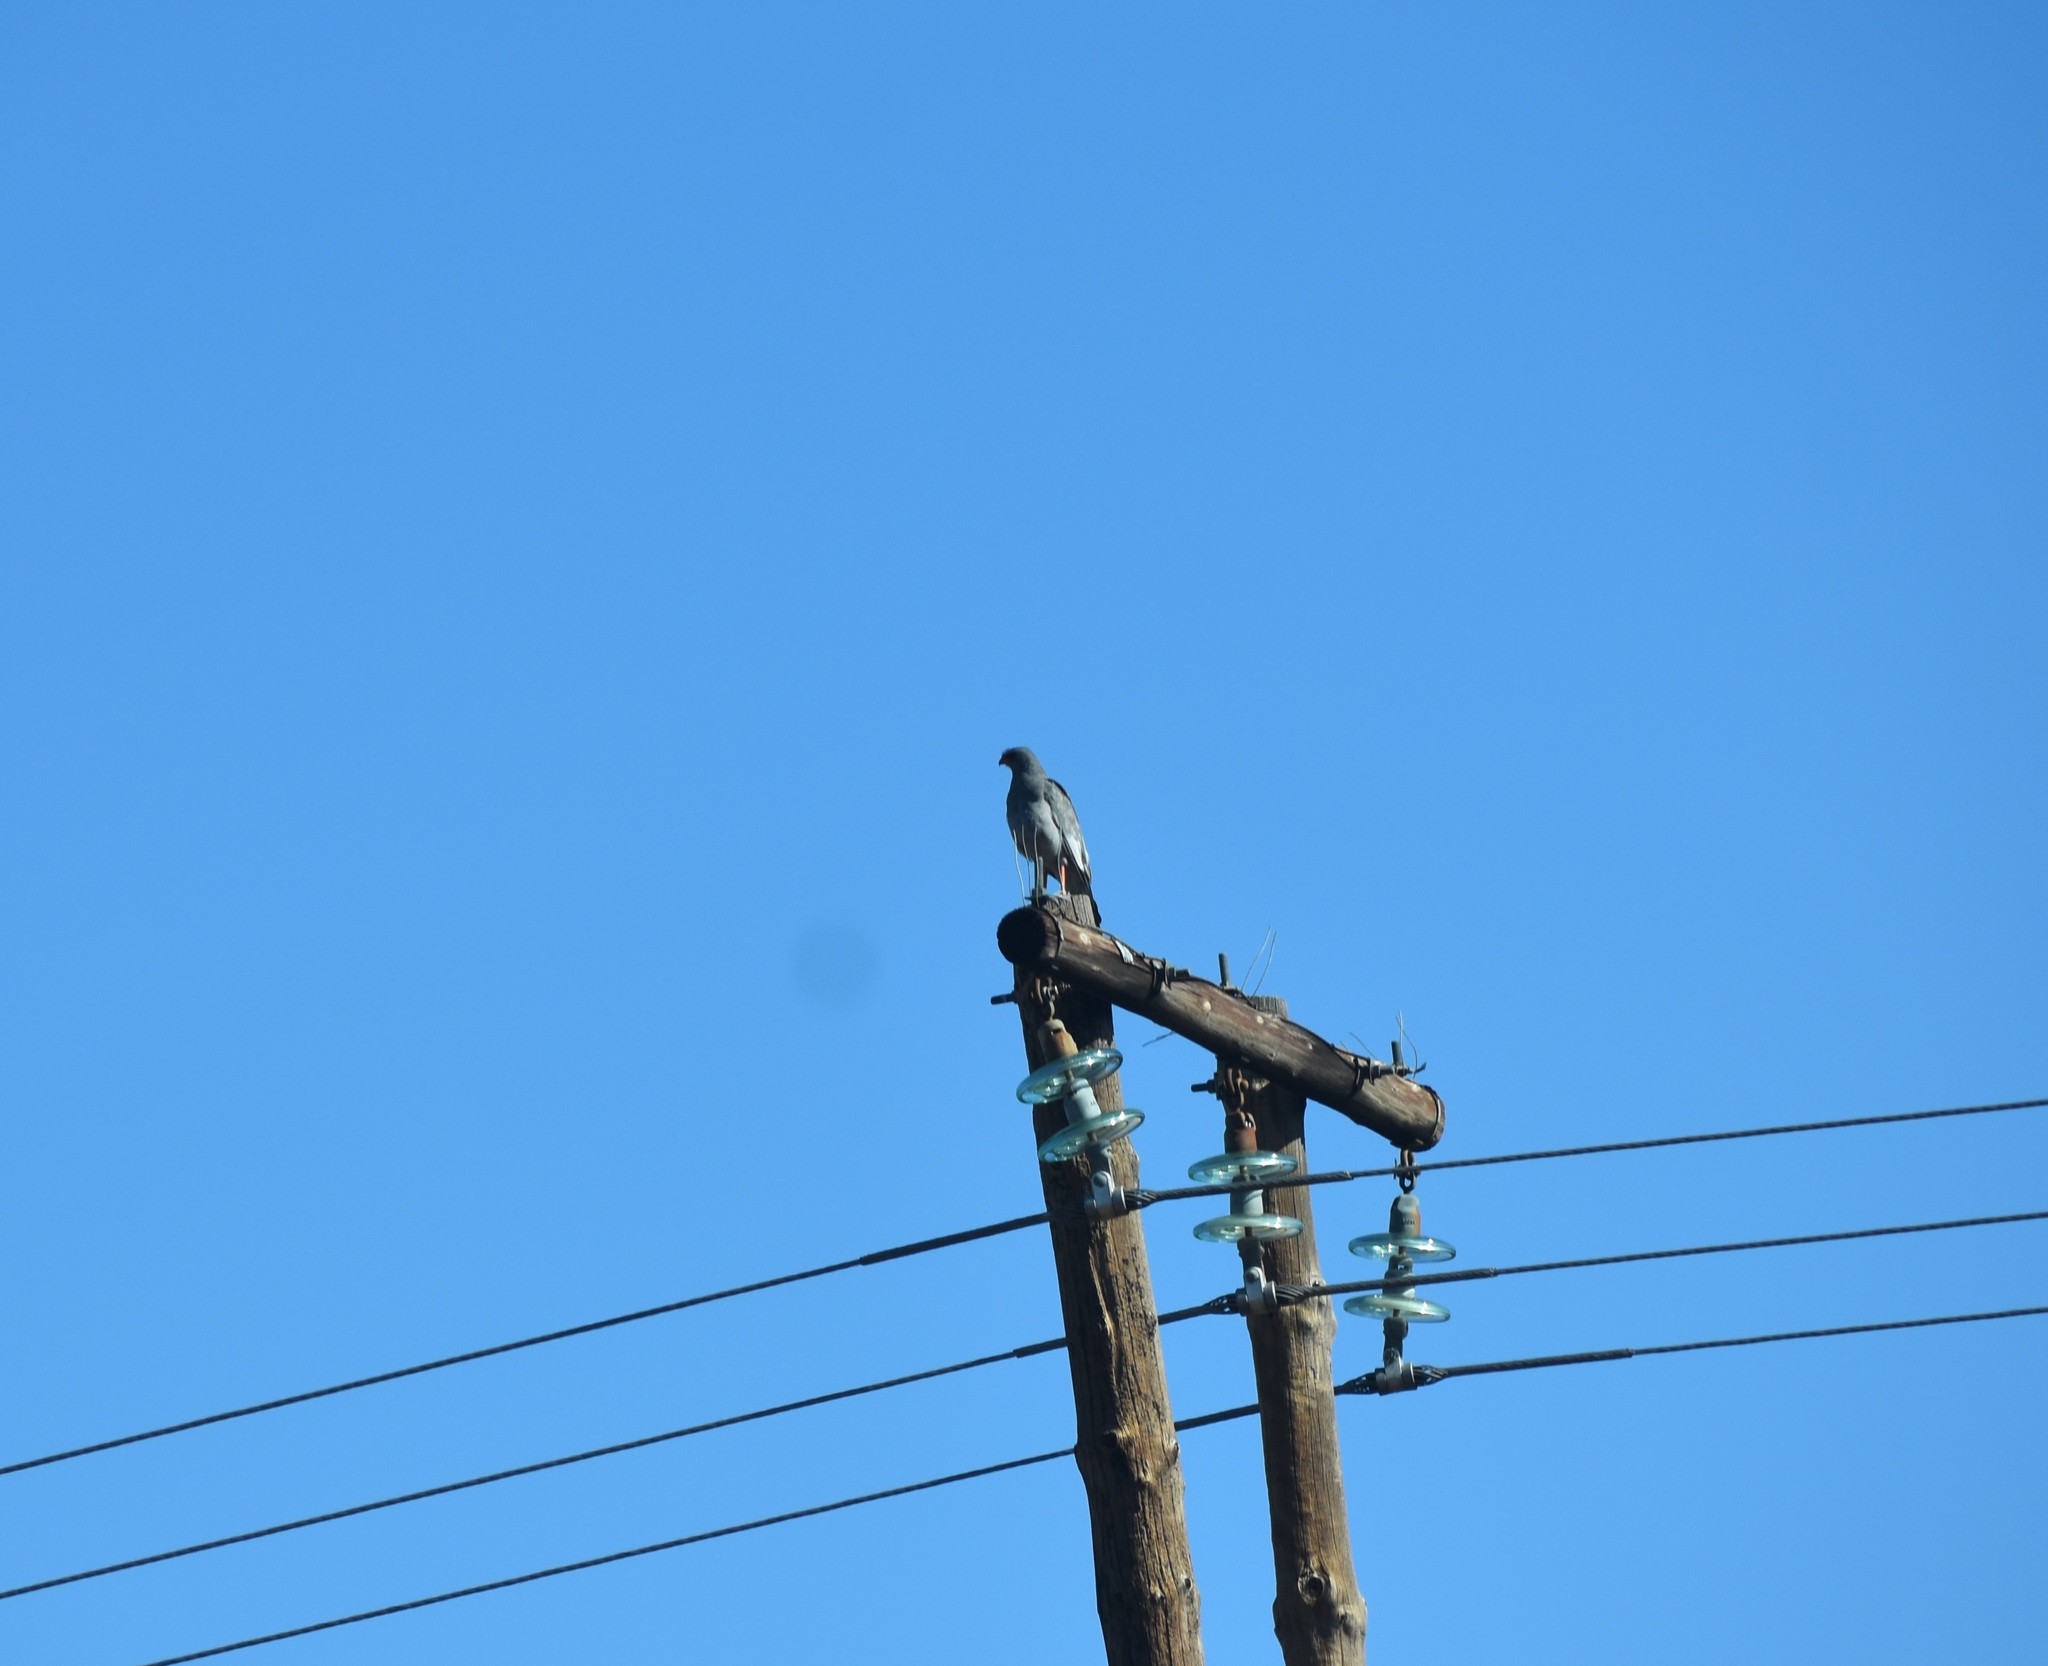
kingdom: Animalia
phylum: Chordata
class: Aves
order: Accipitriformes
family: Accipitridae
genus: Melierax
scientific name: Melierax canorus
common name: Pale chanting-goshawk
